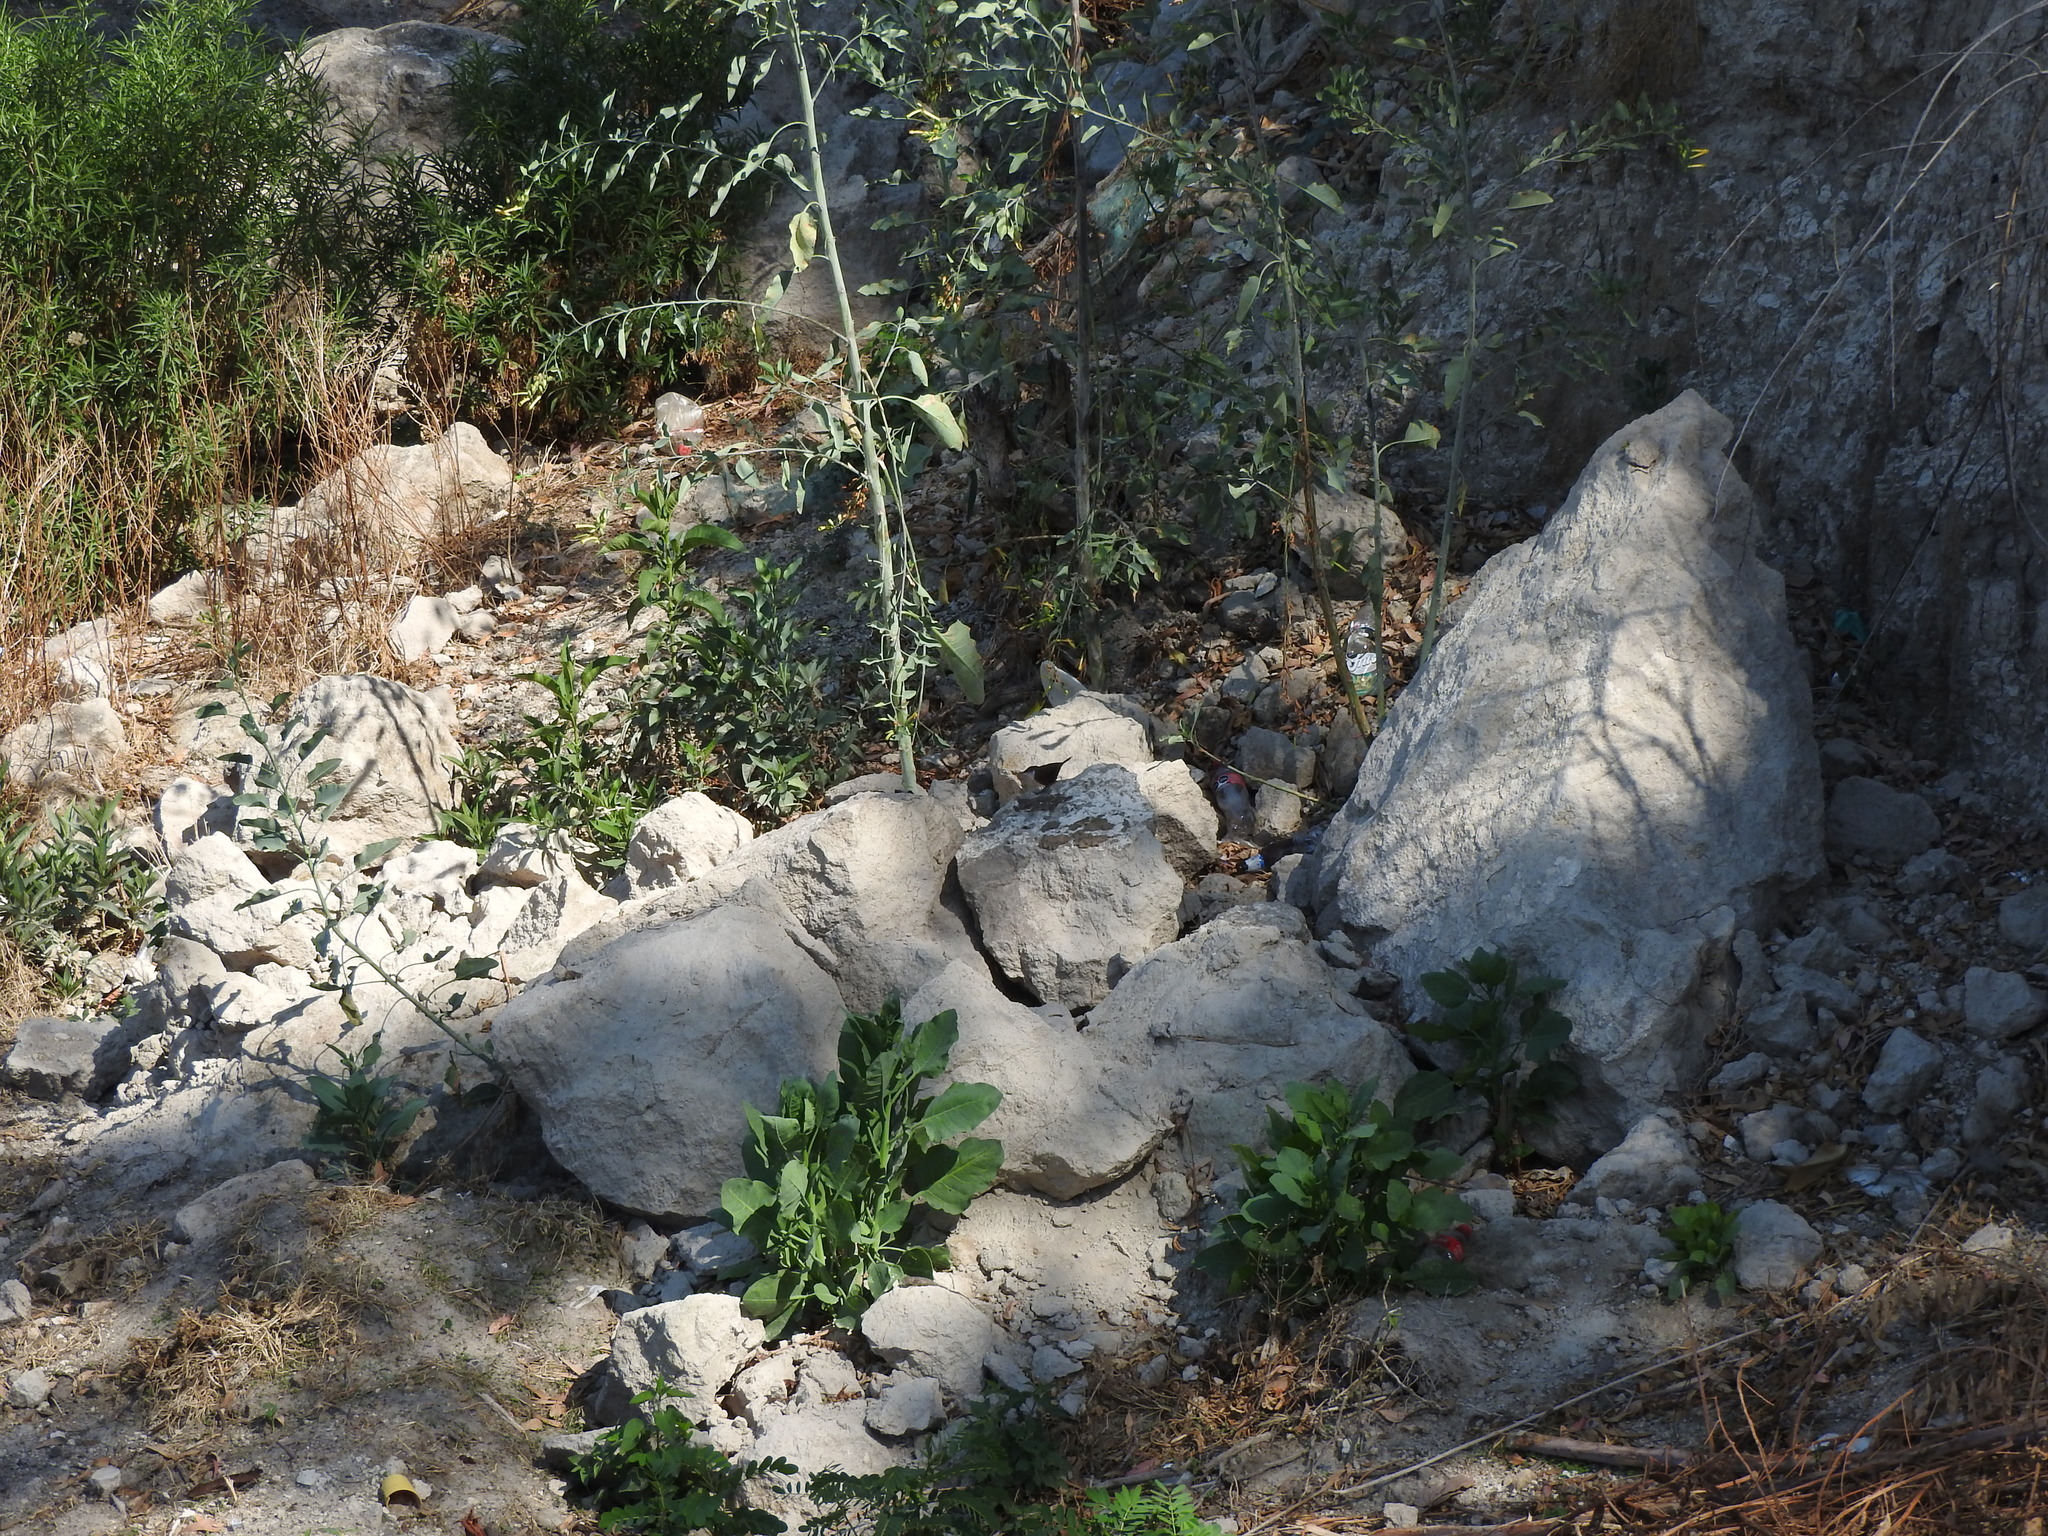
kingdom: Animalia
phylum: Chordata
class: Aves
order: Passeriformes
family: Troglodytidae
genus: Catherpes
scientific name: Catherpes mexicanus
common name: Canyon wren
